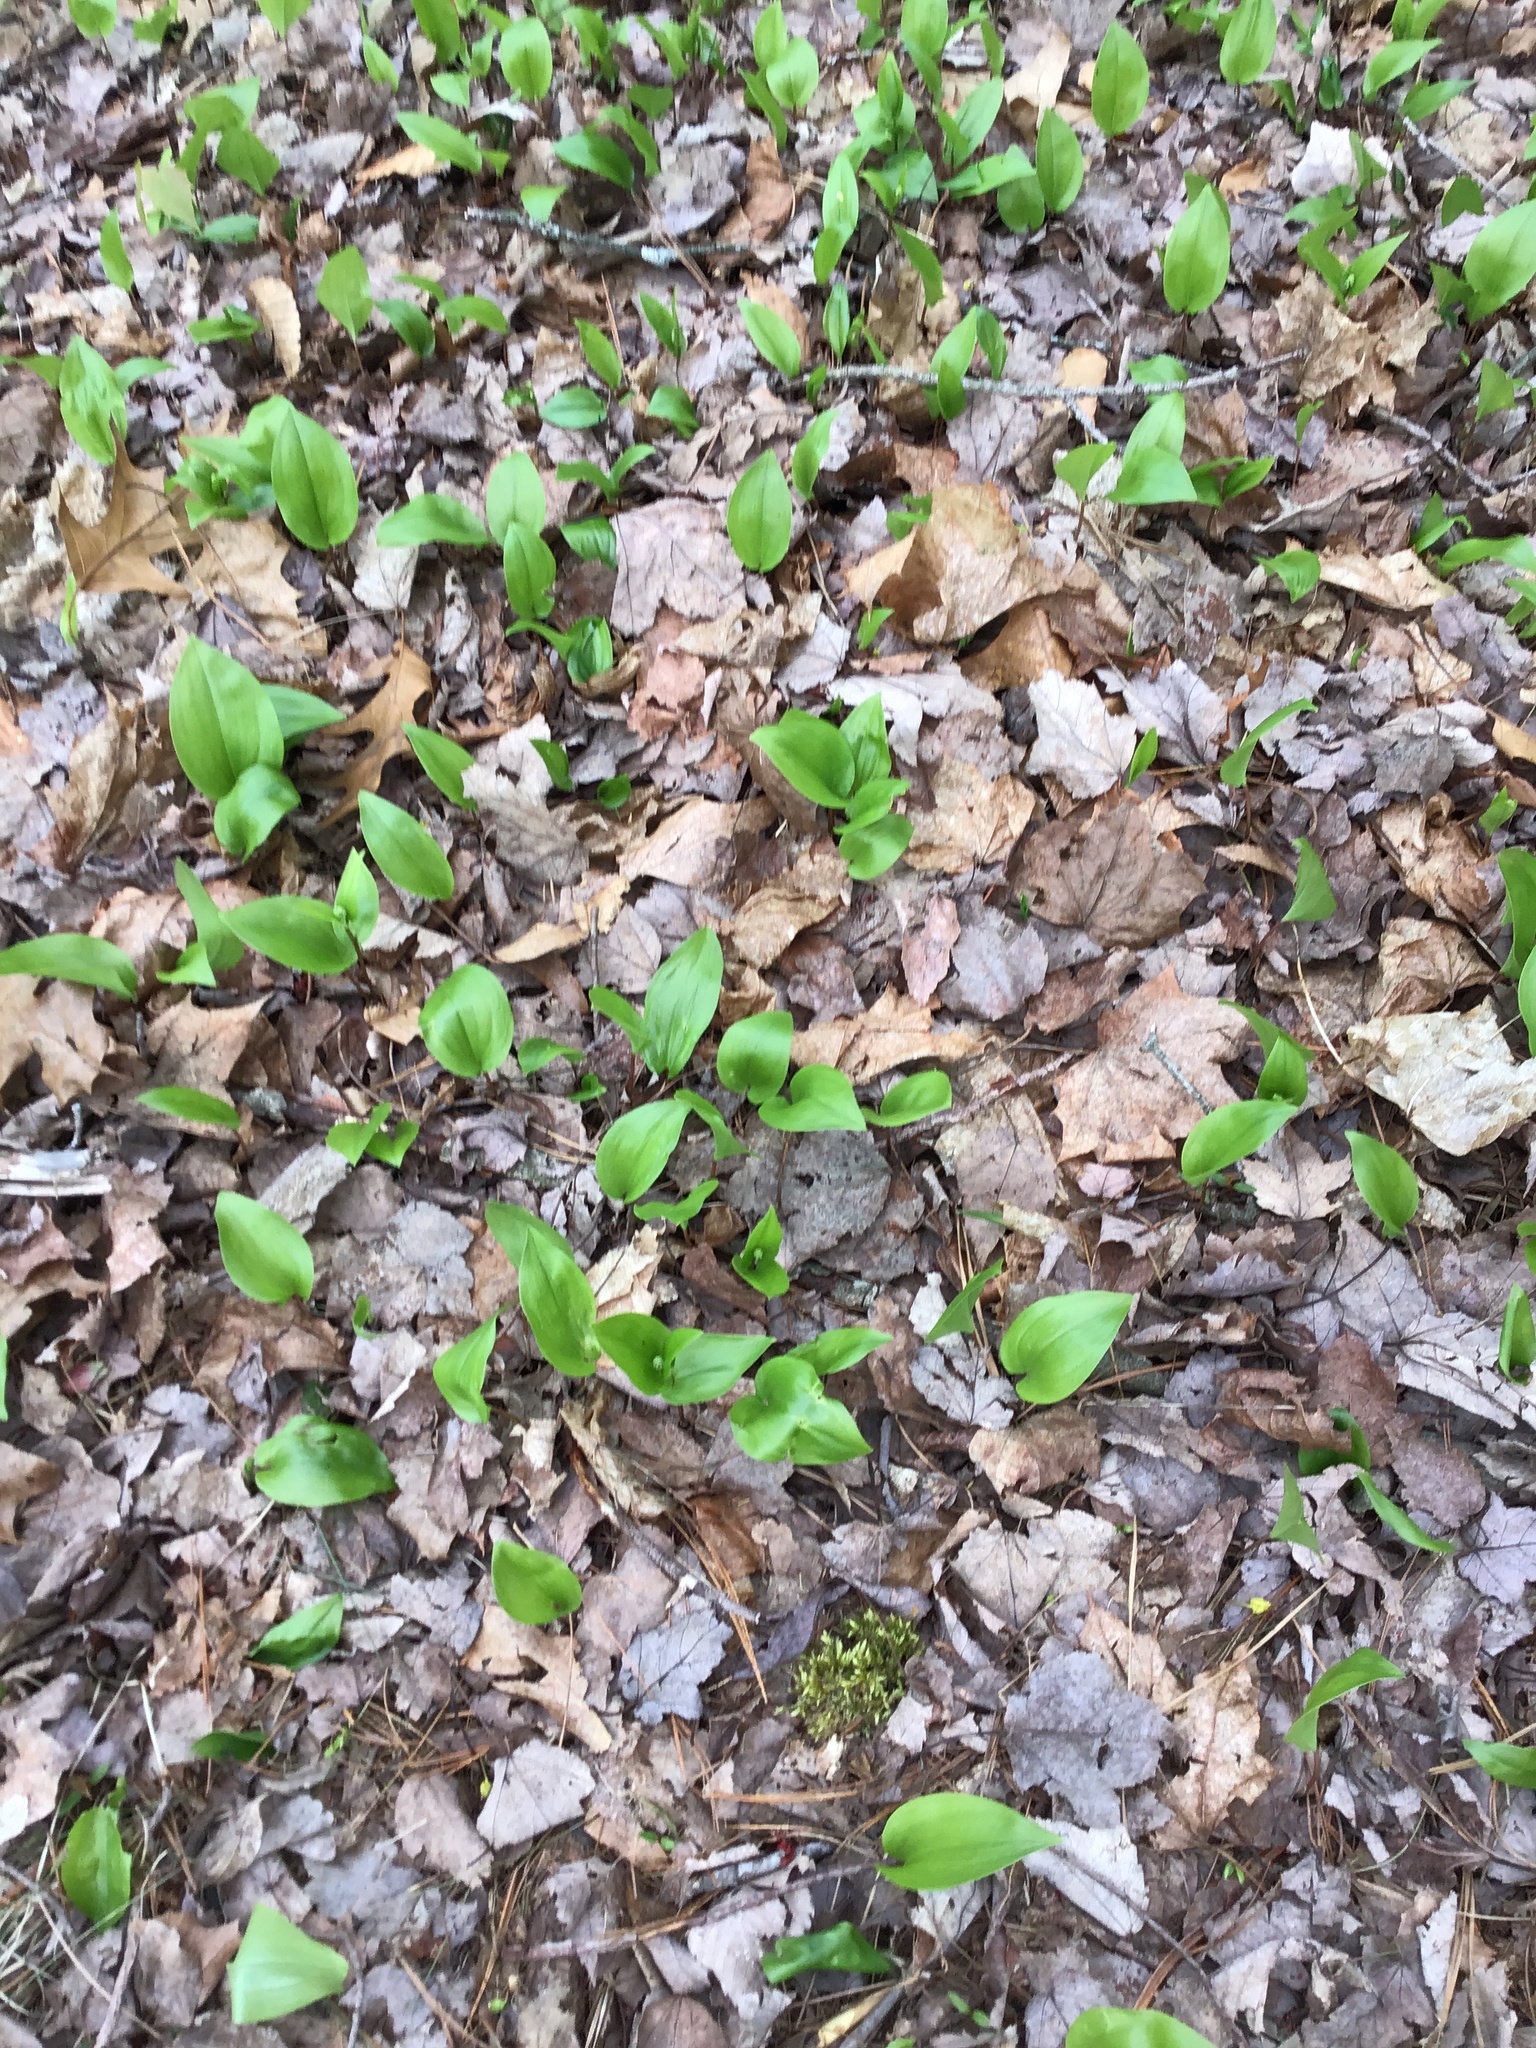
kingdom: Plantae
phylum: Tracheophyta
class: Liliopsida
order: Asparagales
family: Asparagaceae
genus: Maianthemum
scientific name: Maianthemum canadense
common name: False lily-of-the-valley
